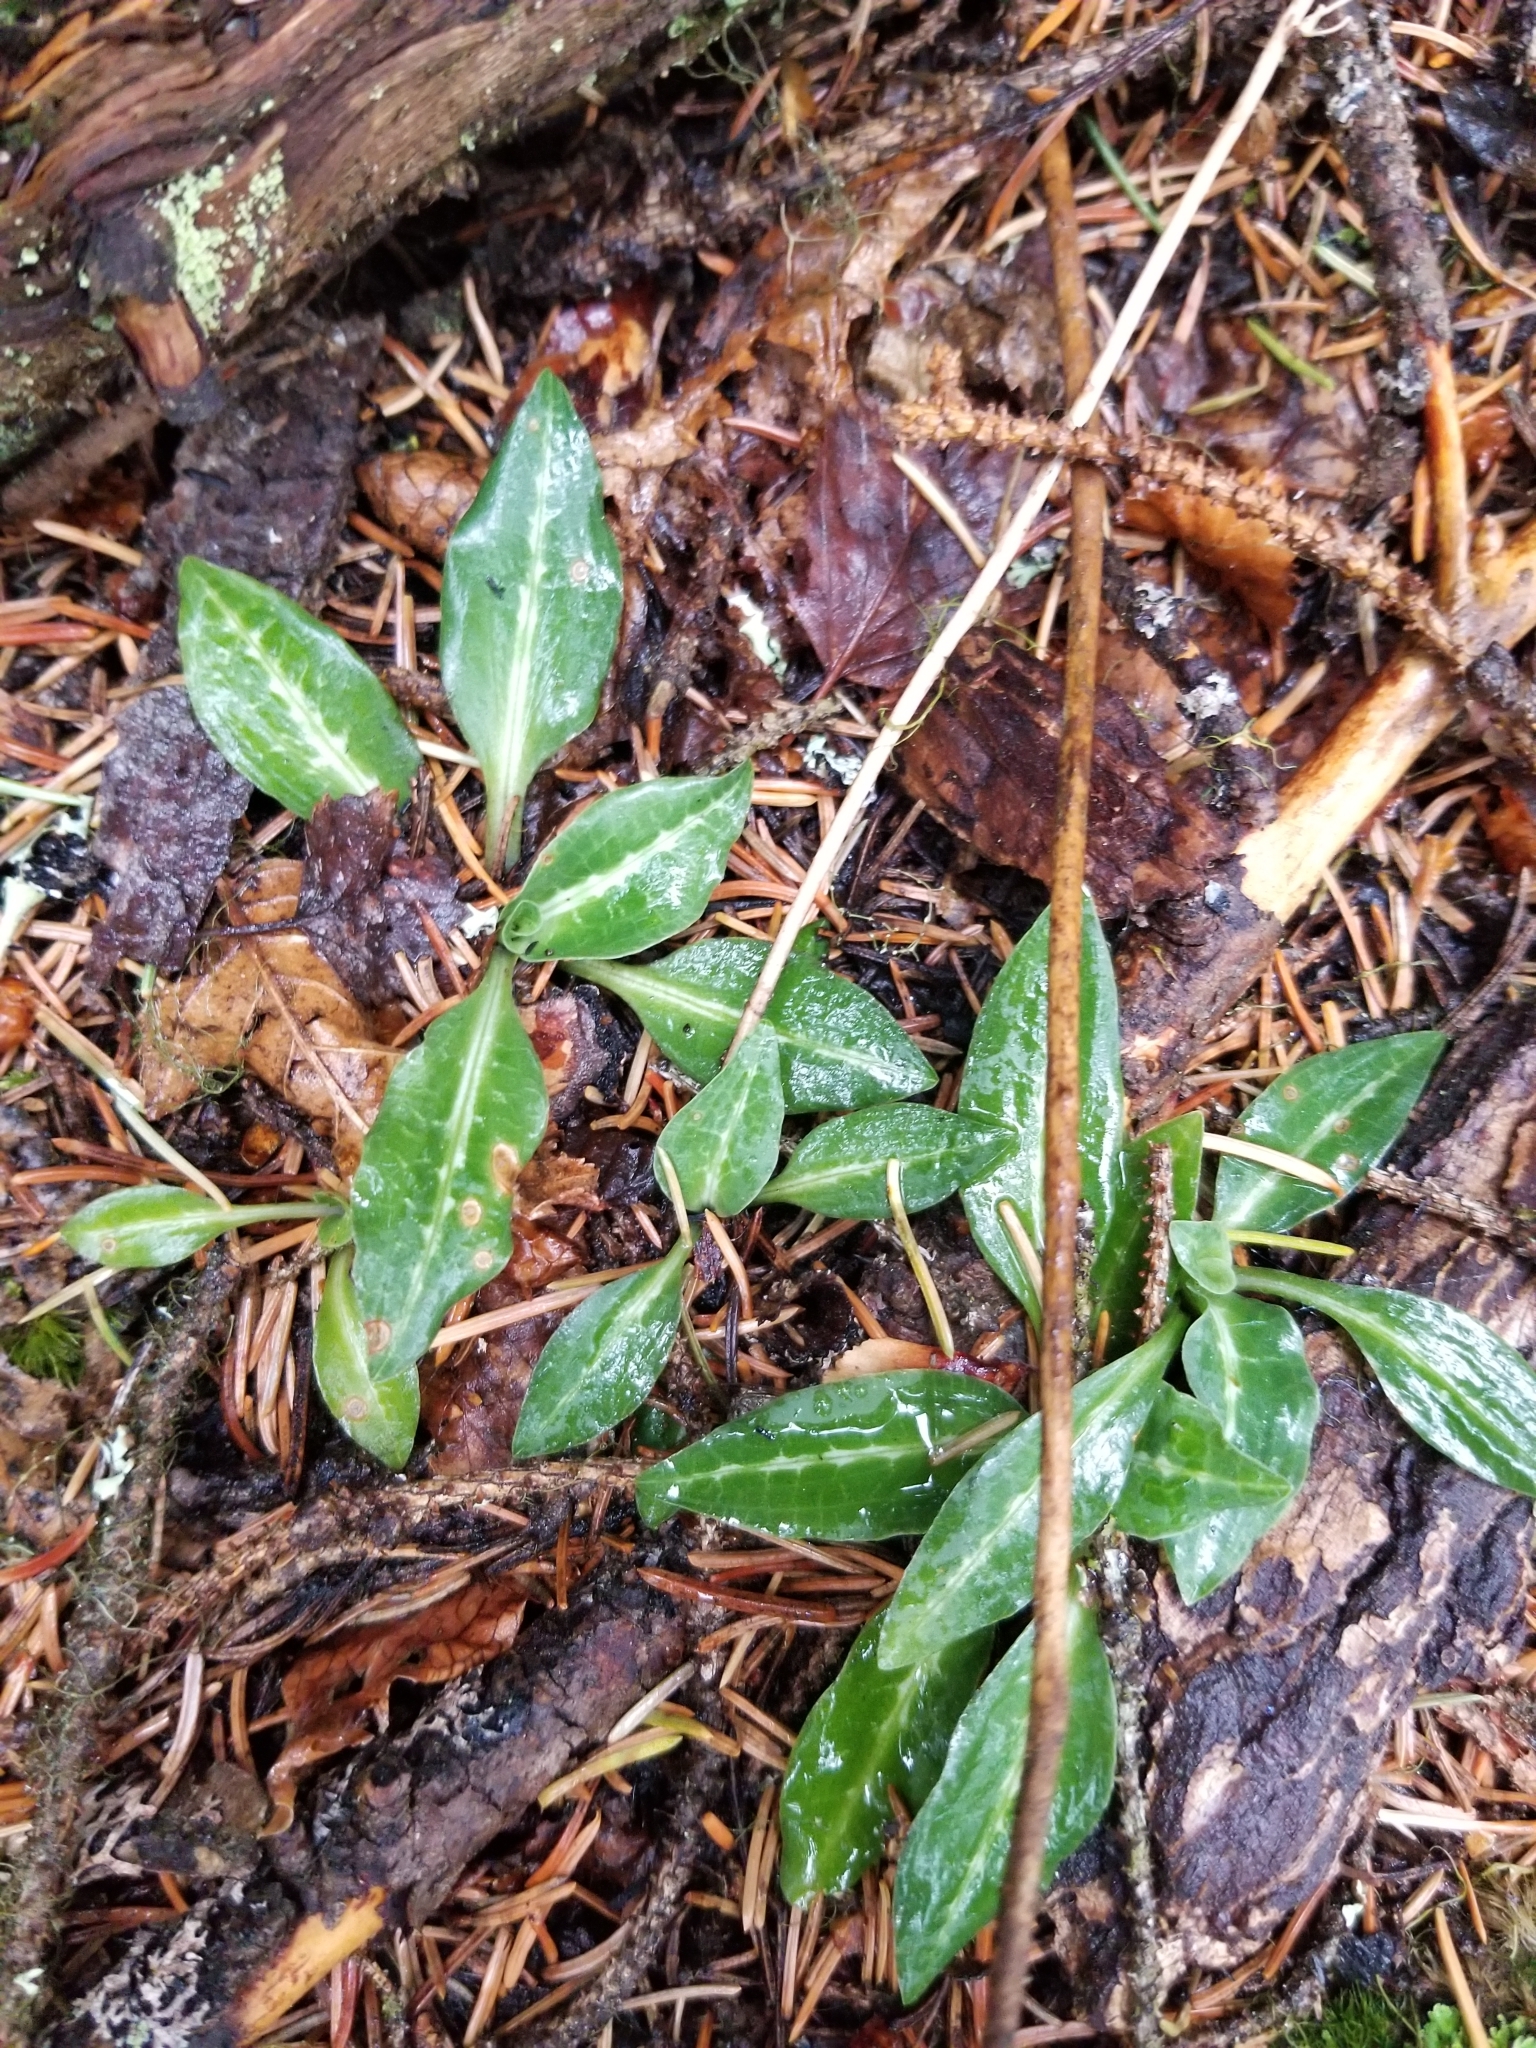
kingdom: Plantae
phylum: Tracheophyta
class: Liliopsida
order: Asparagales
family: Orchidaceae
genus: Goodyera
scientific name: Goodyera oblongifolia
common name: Giant rattlesnake-plantain
